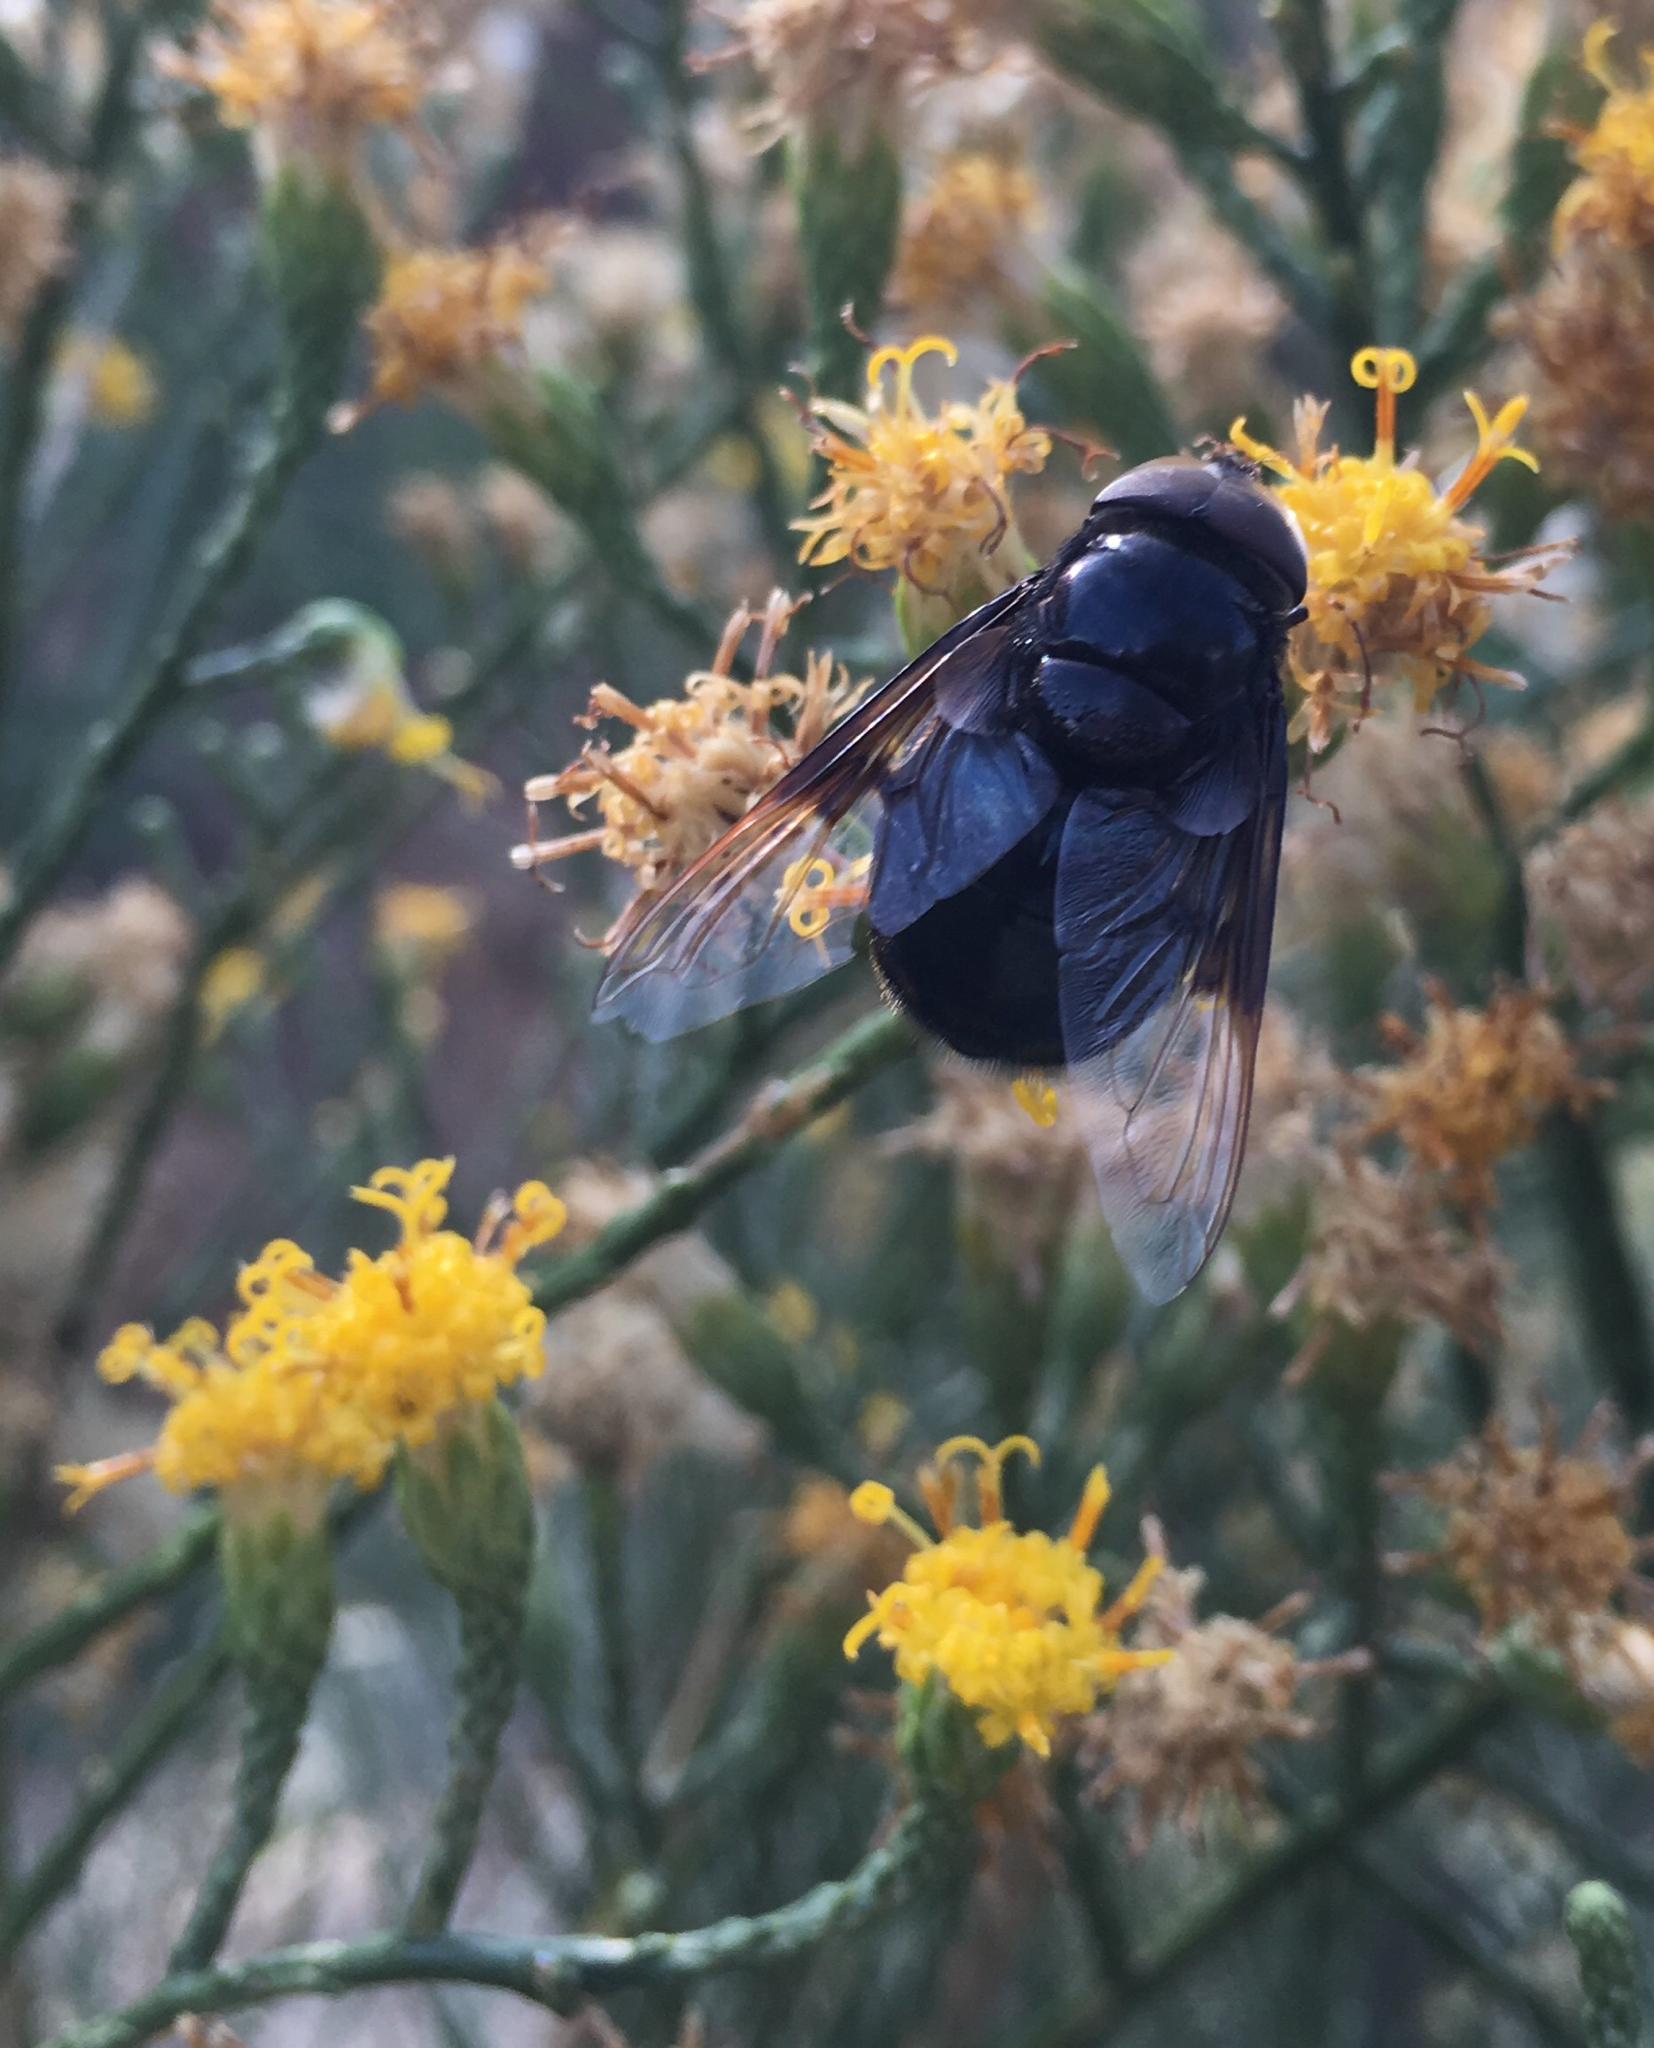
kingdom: Animalia
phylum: Arthropoda
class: Insecta
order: Diptera
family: Syrphidae
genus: Copestylum
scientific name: Copestylum mexicanum
